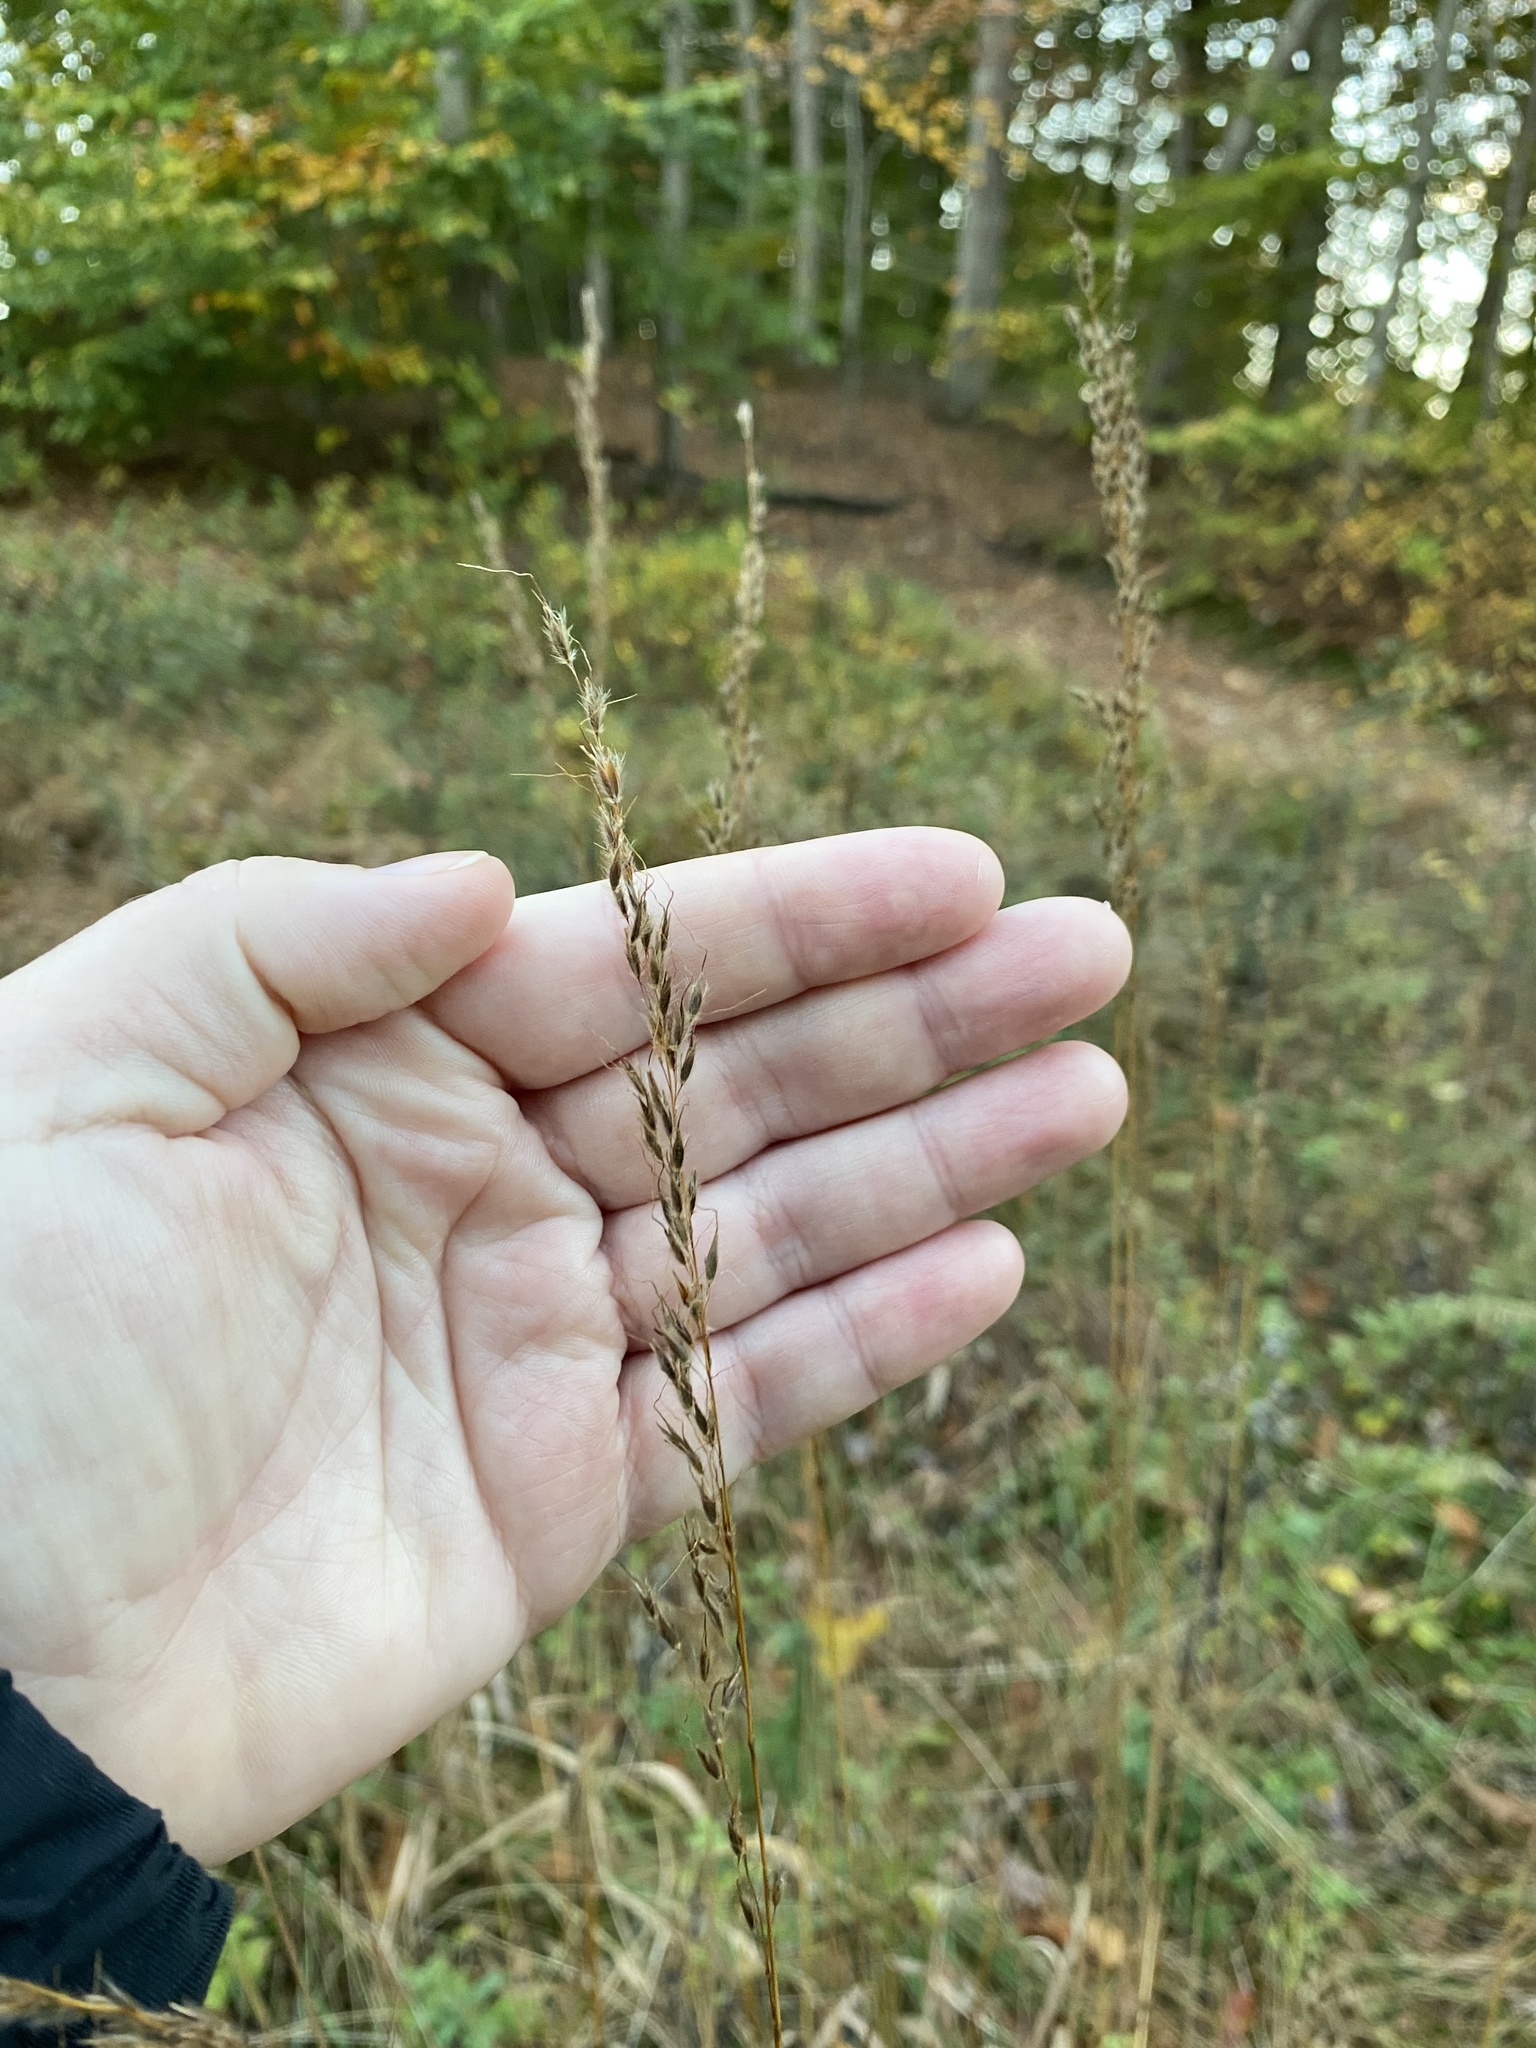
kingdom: Plantae
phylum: Tracheophyta
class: Liliopsida
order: Poales
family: Poaceae
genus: Sorghastrum
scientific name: Sorghastrum nutans
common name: Indian grass
